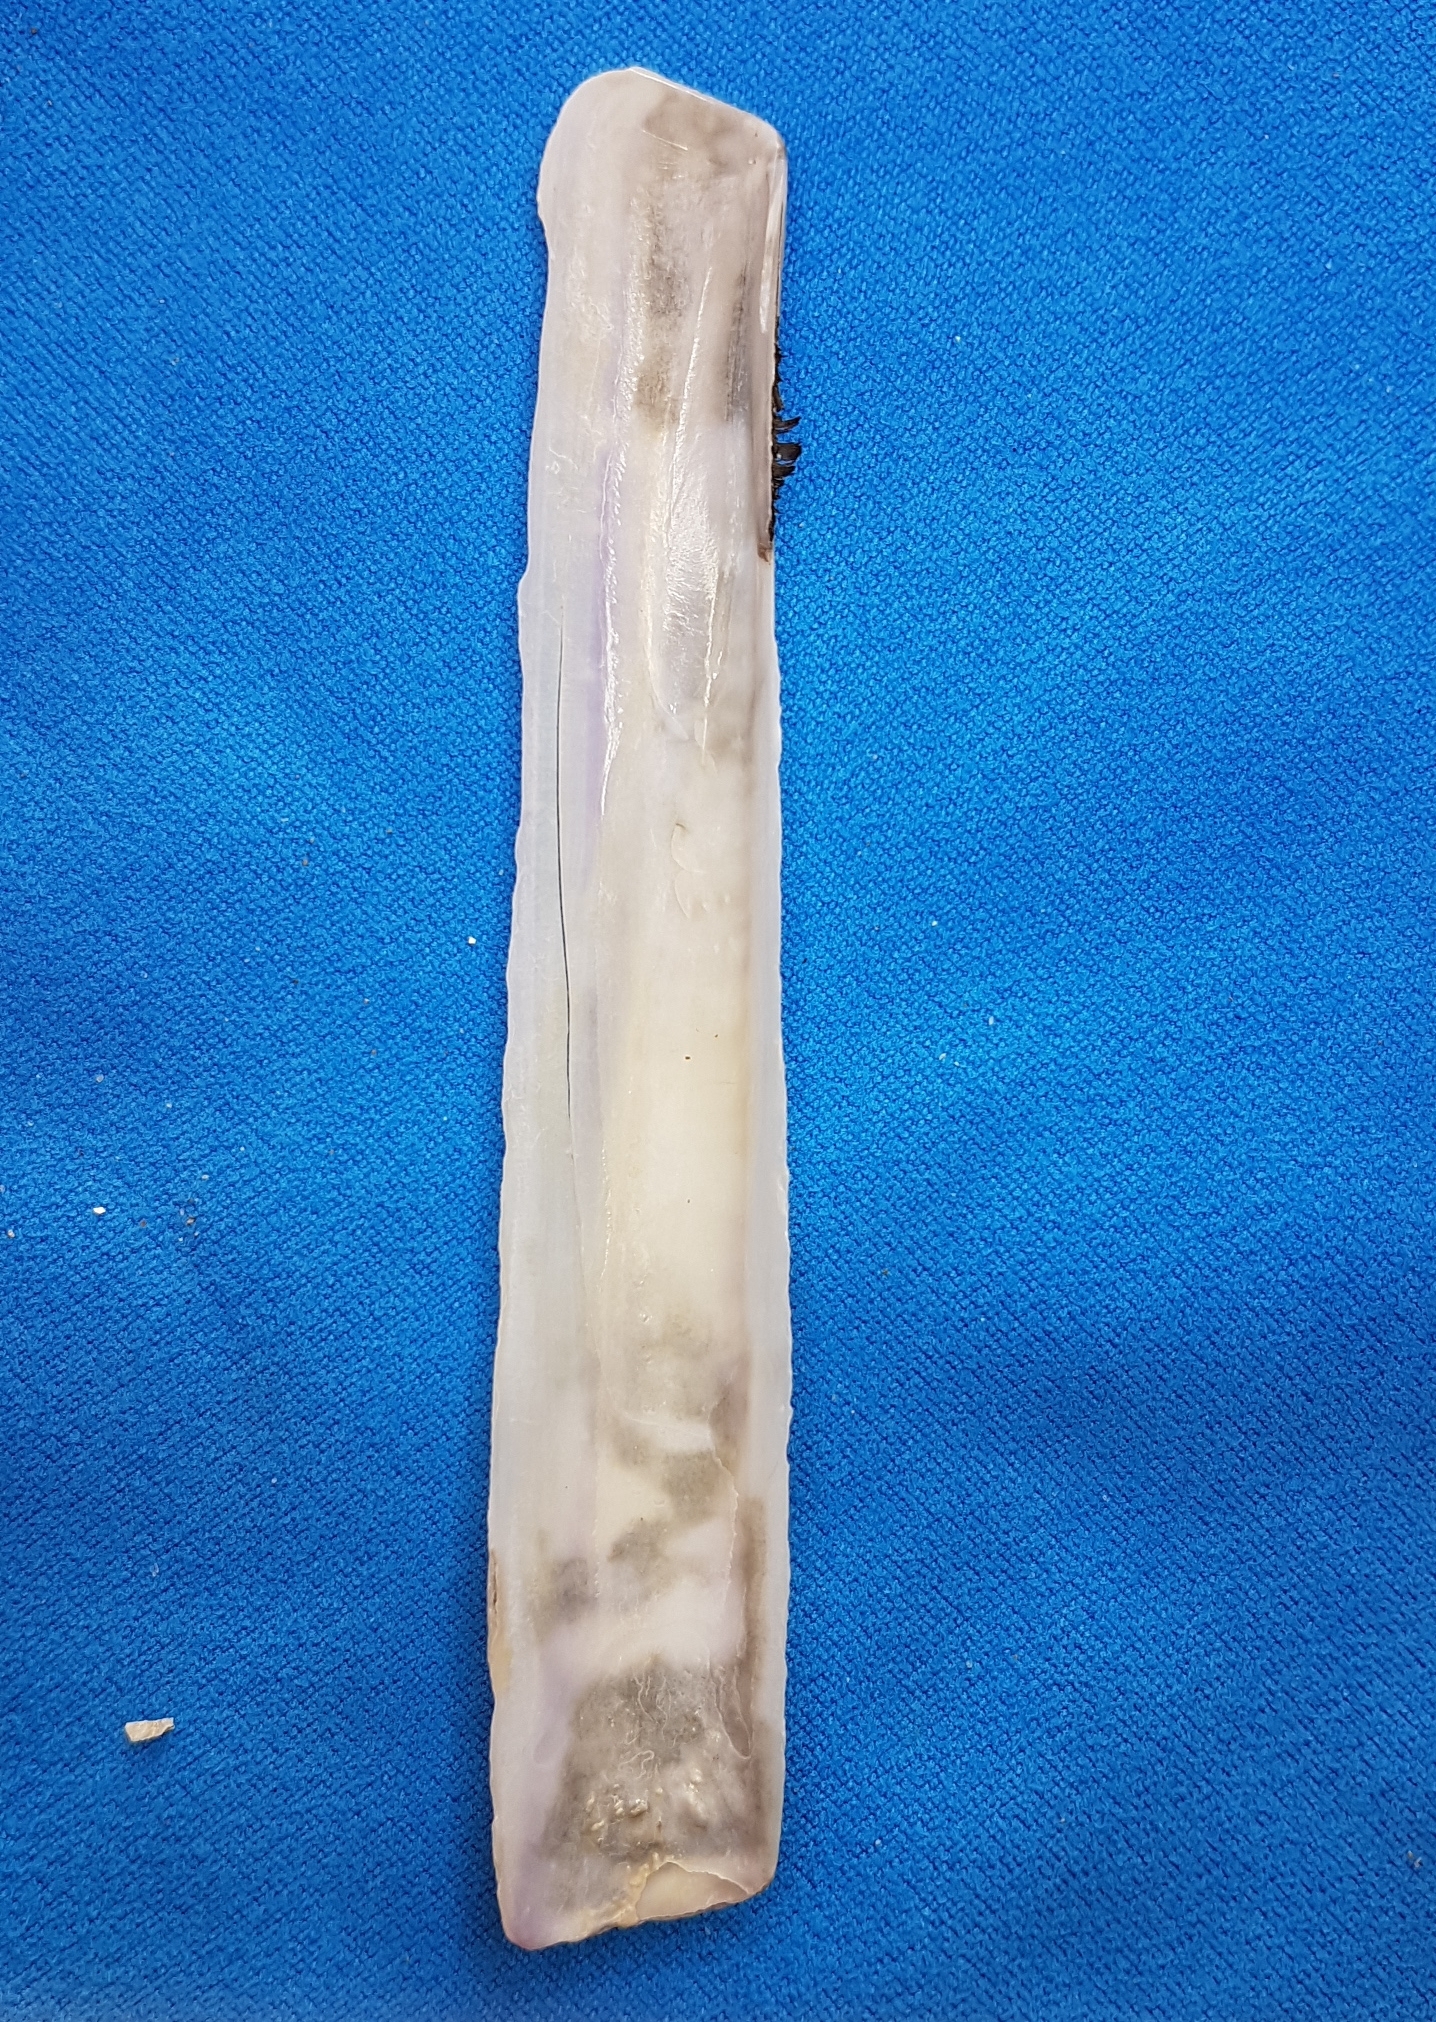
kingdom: Animalia
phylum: Mollusca
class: Bivalvia
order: Adapedonta
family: Pharidae
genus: Ensis
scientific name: Ensis minor
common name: Minor jackknife clam
